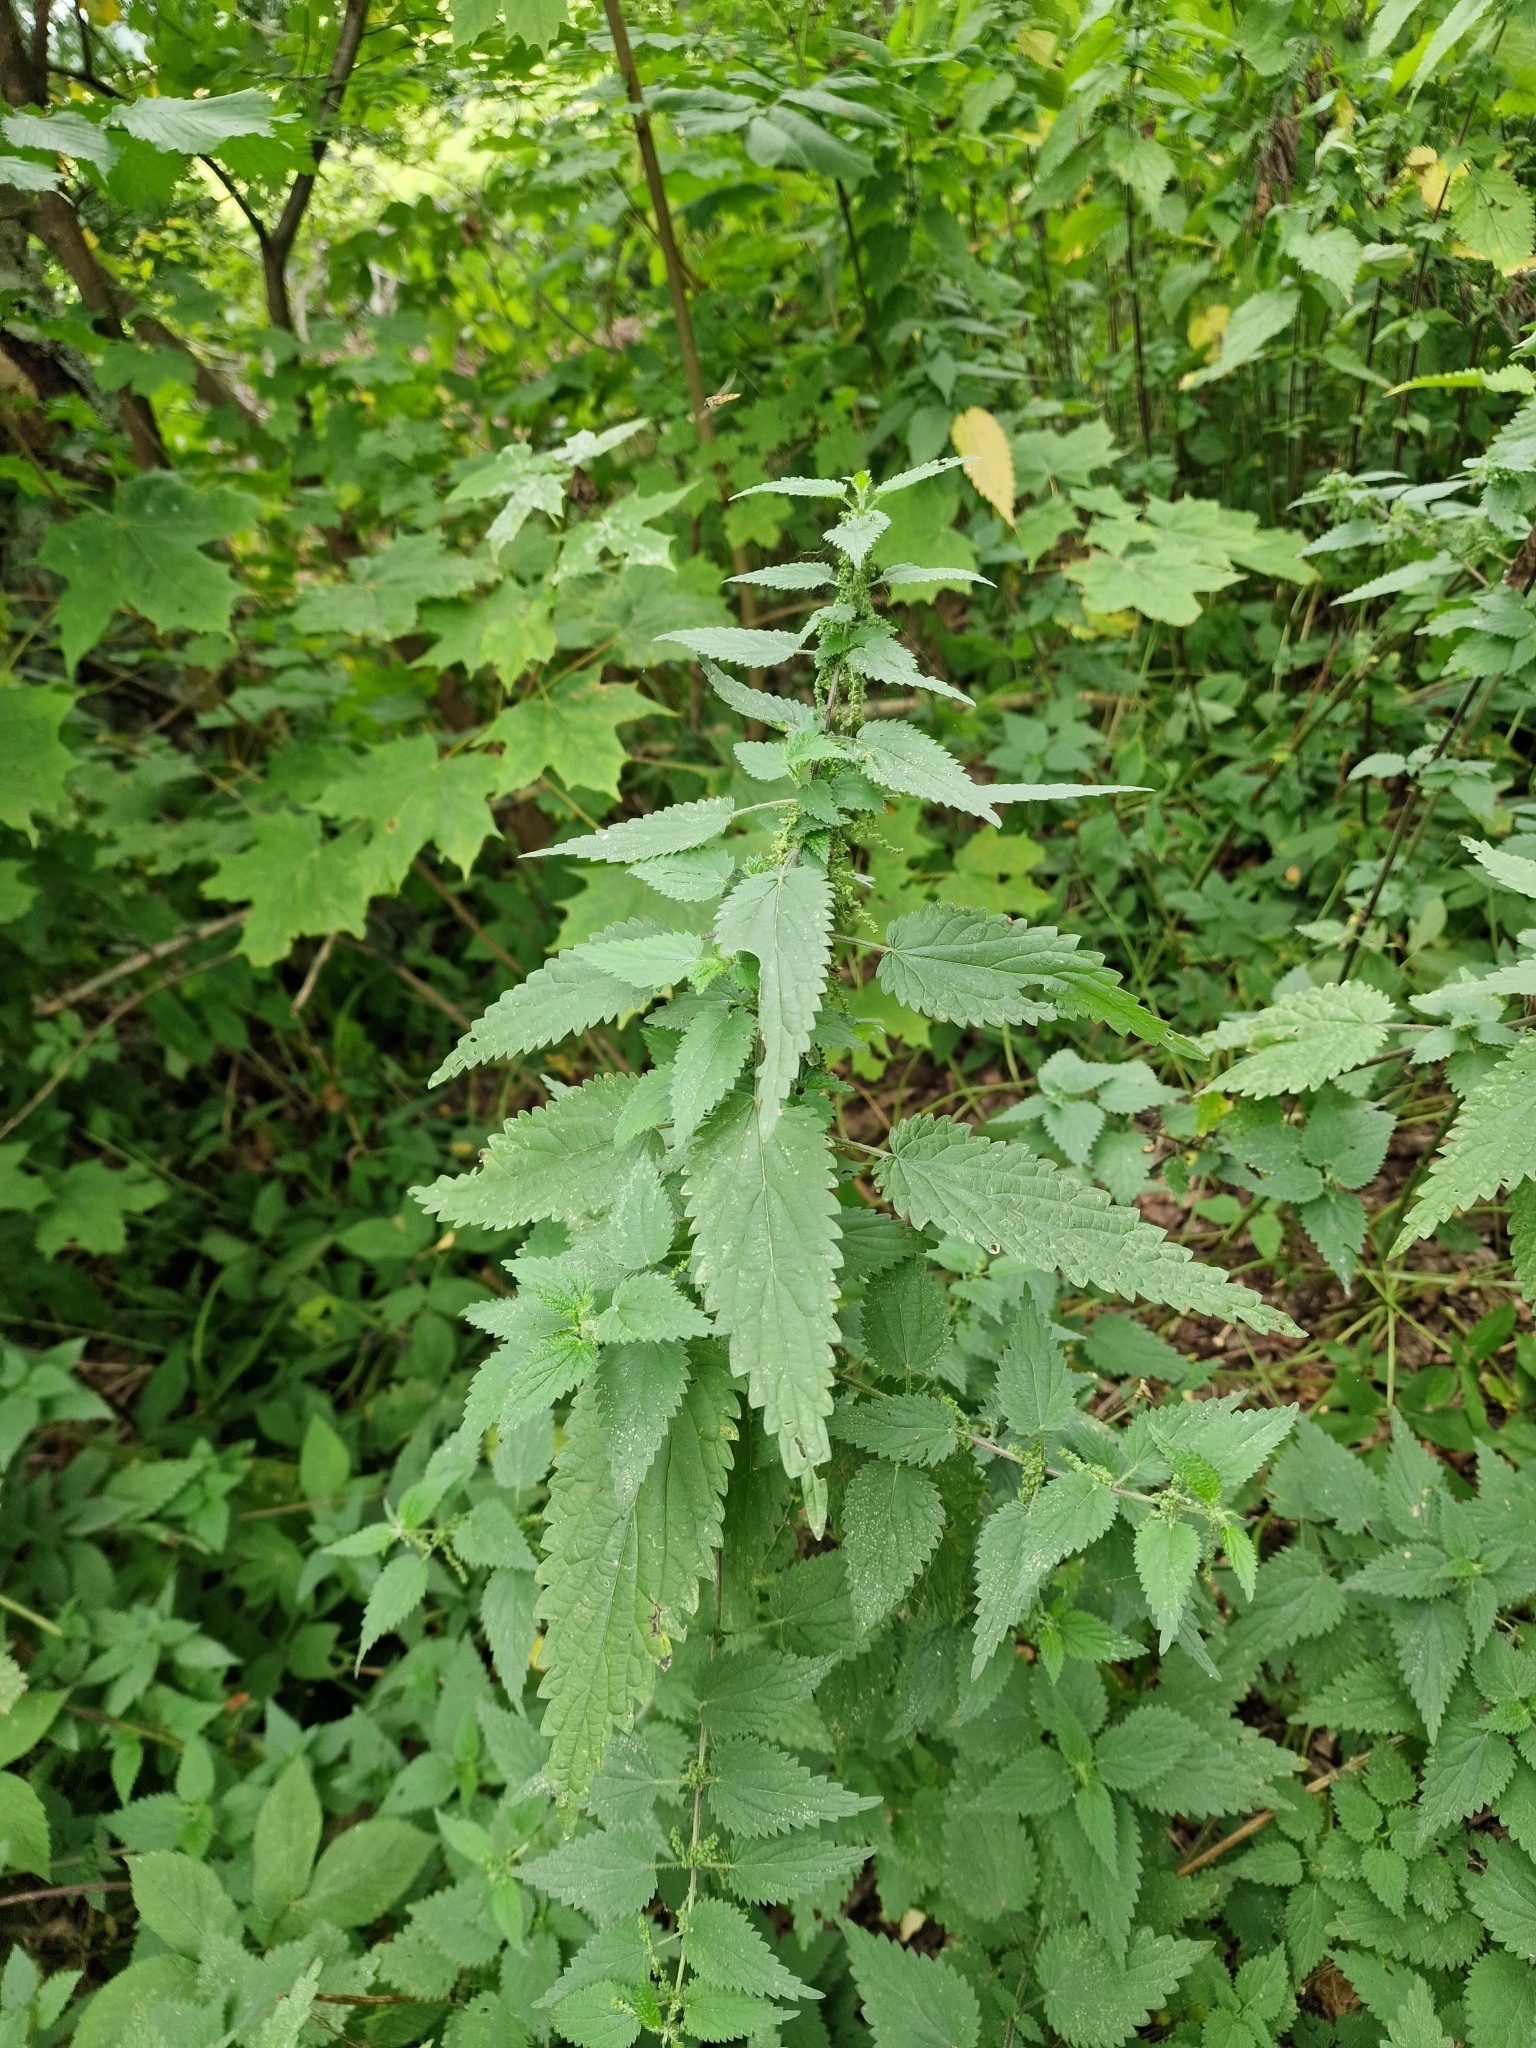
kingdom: Plantae
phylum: Tracheophyta
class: Magnoliopsida
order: Rosales
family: Urticaceae
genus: Urtica
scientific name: Urtica dioica
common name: Common nettle
